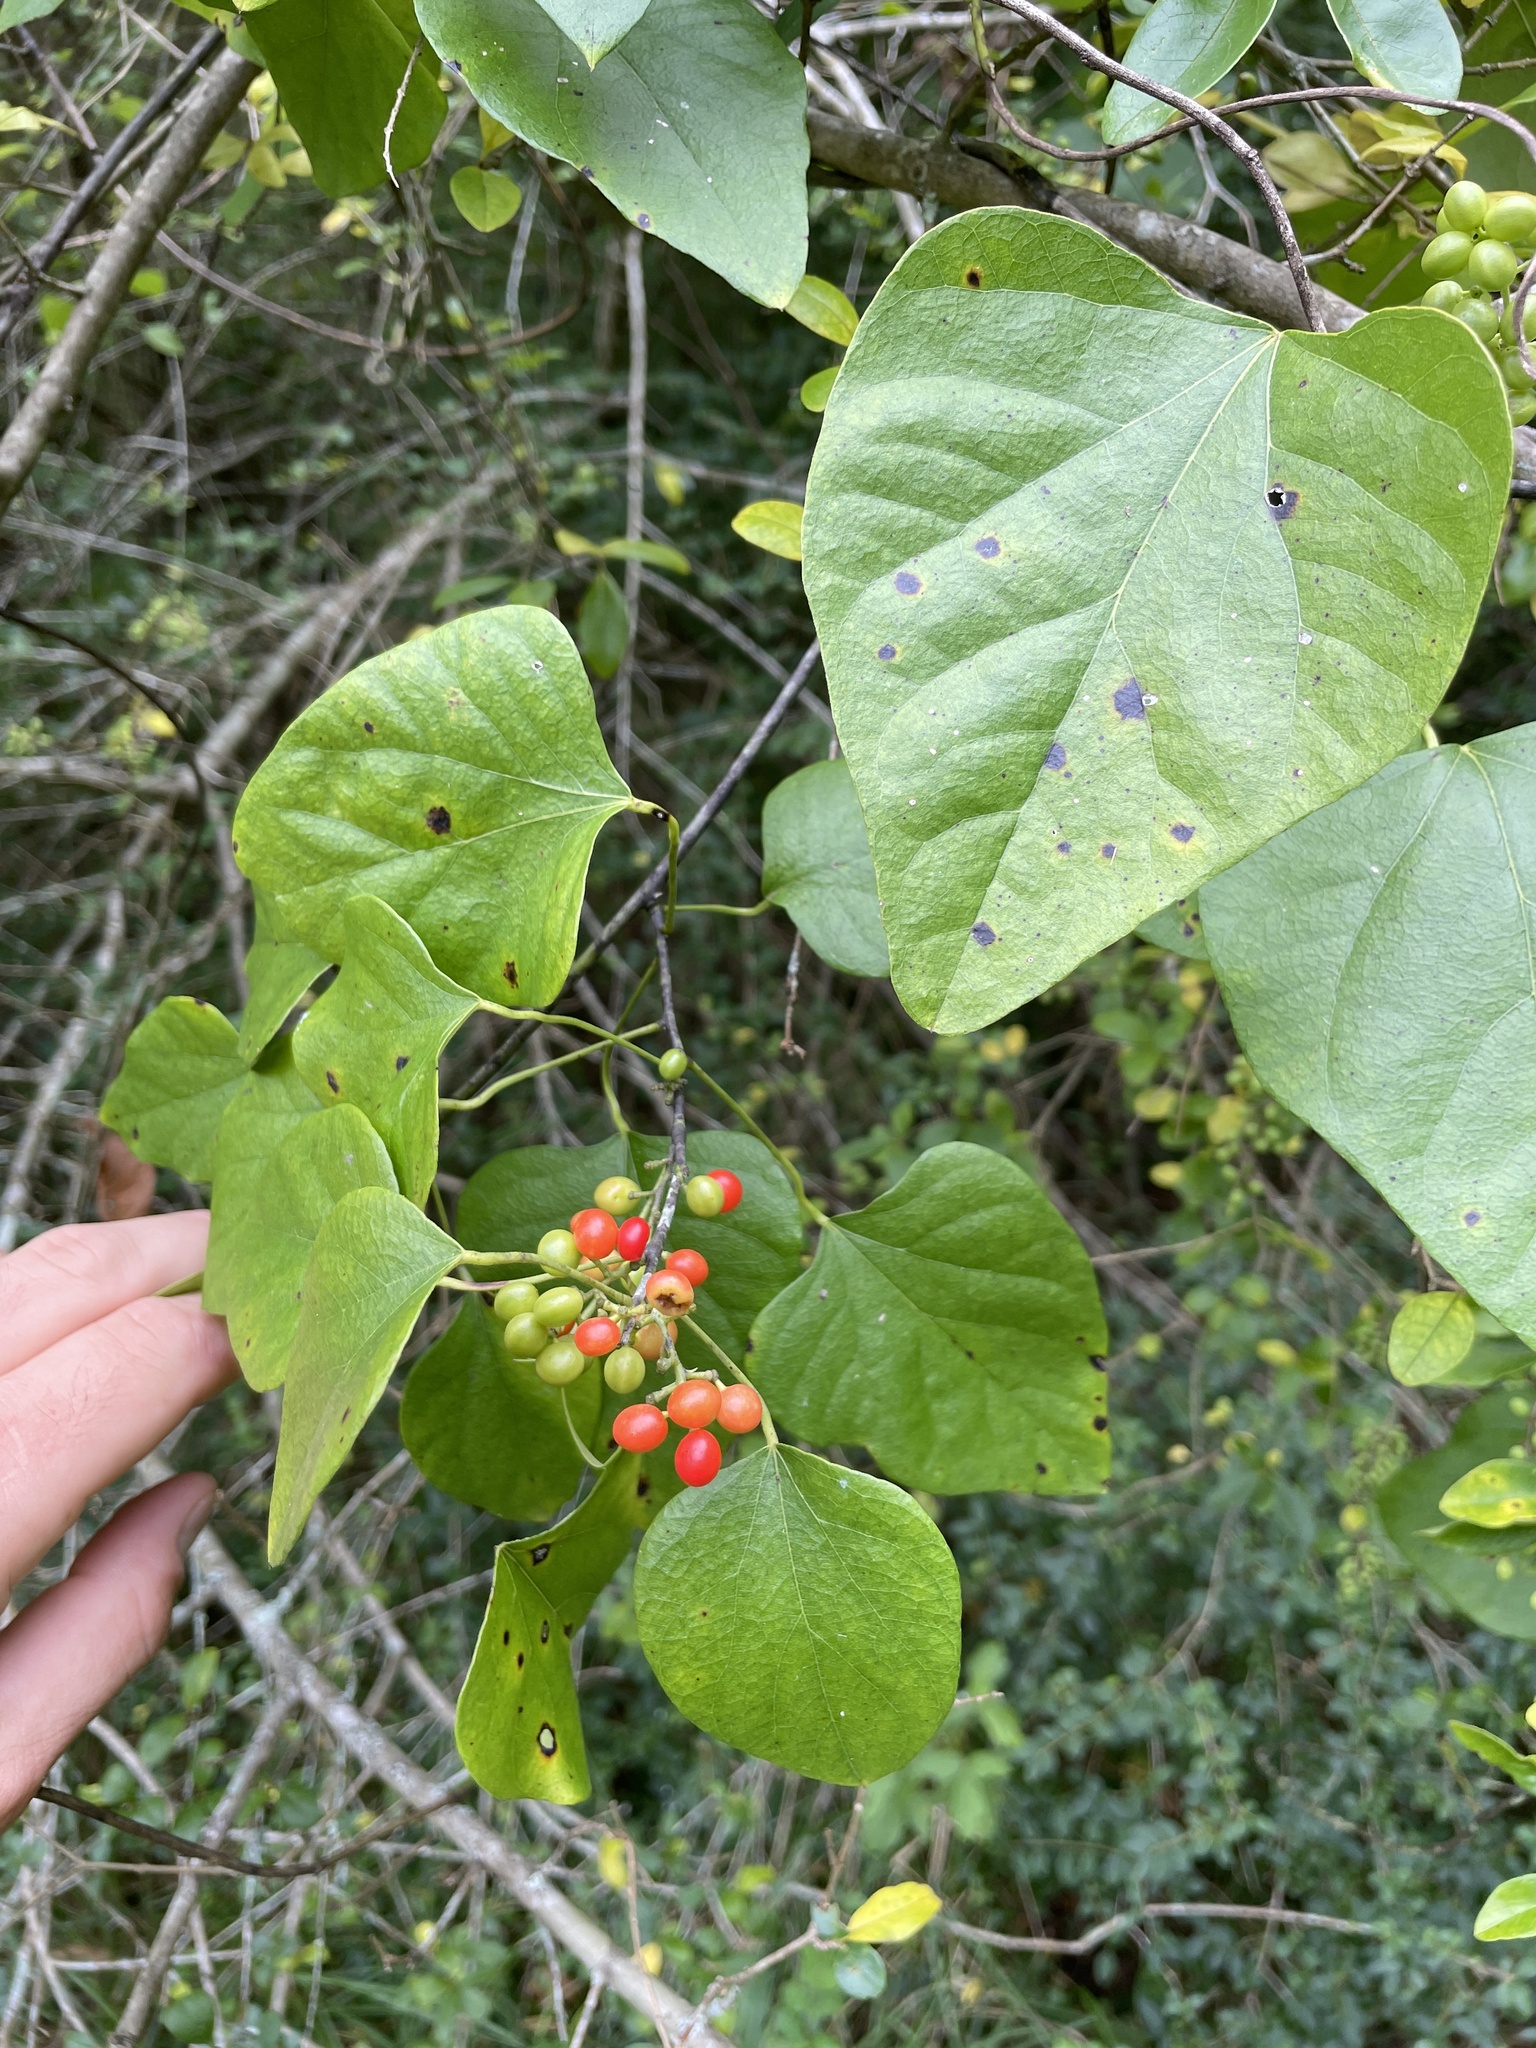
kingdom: Plantae
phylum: Tracheophyta
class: Magnoliopsida
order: Ranunculales
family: Menispermaceae
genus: Cocculus
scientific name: Cocculus carolinus
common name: Carolina moonseed
